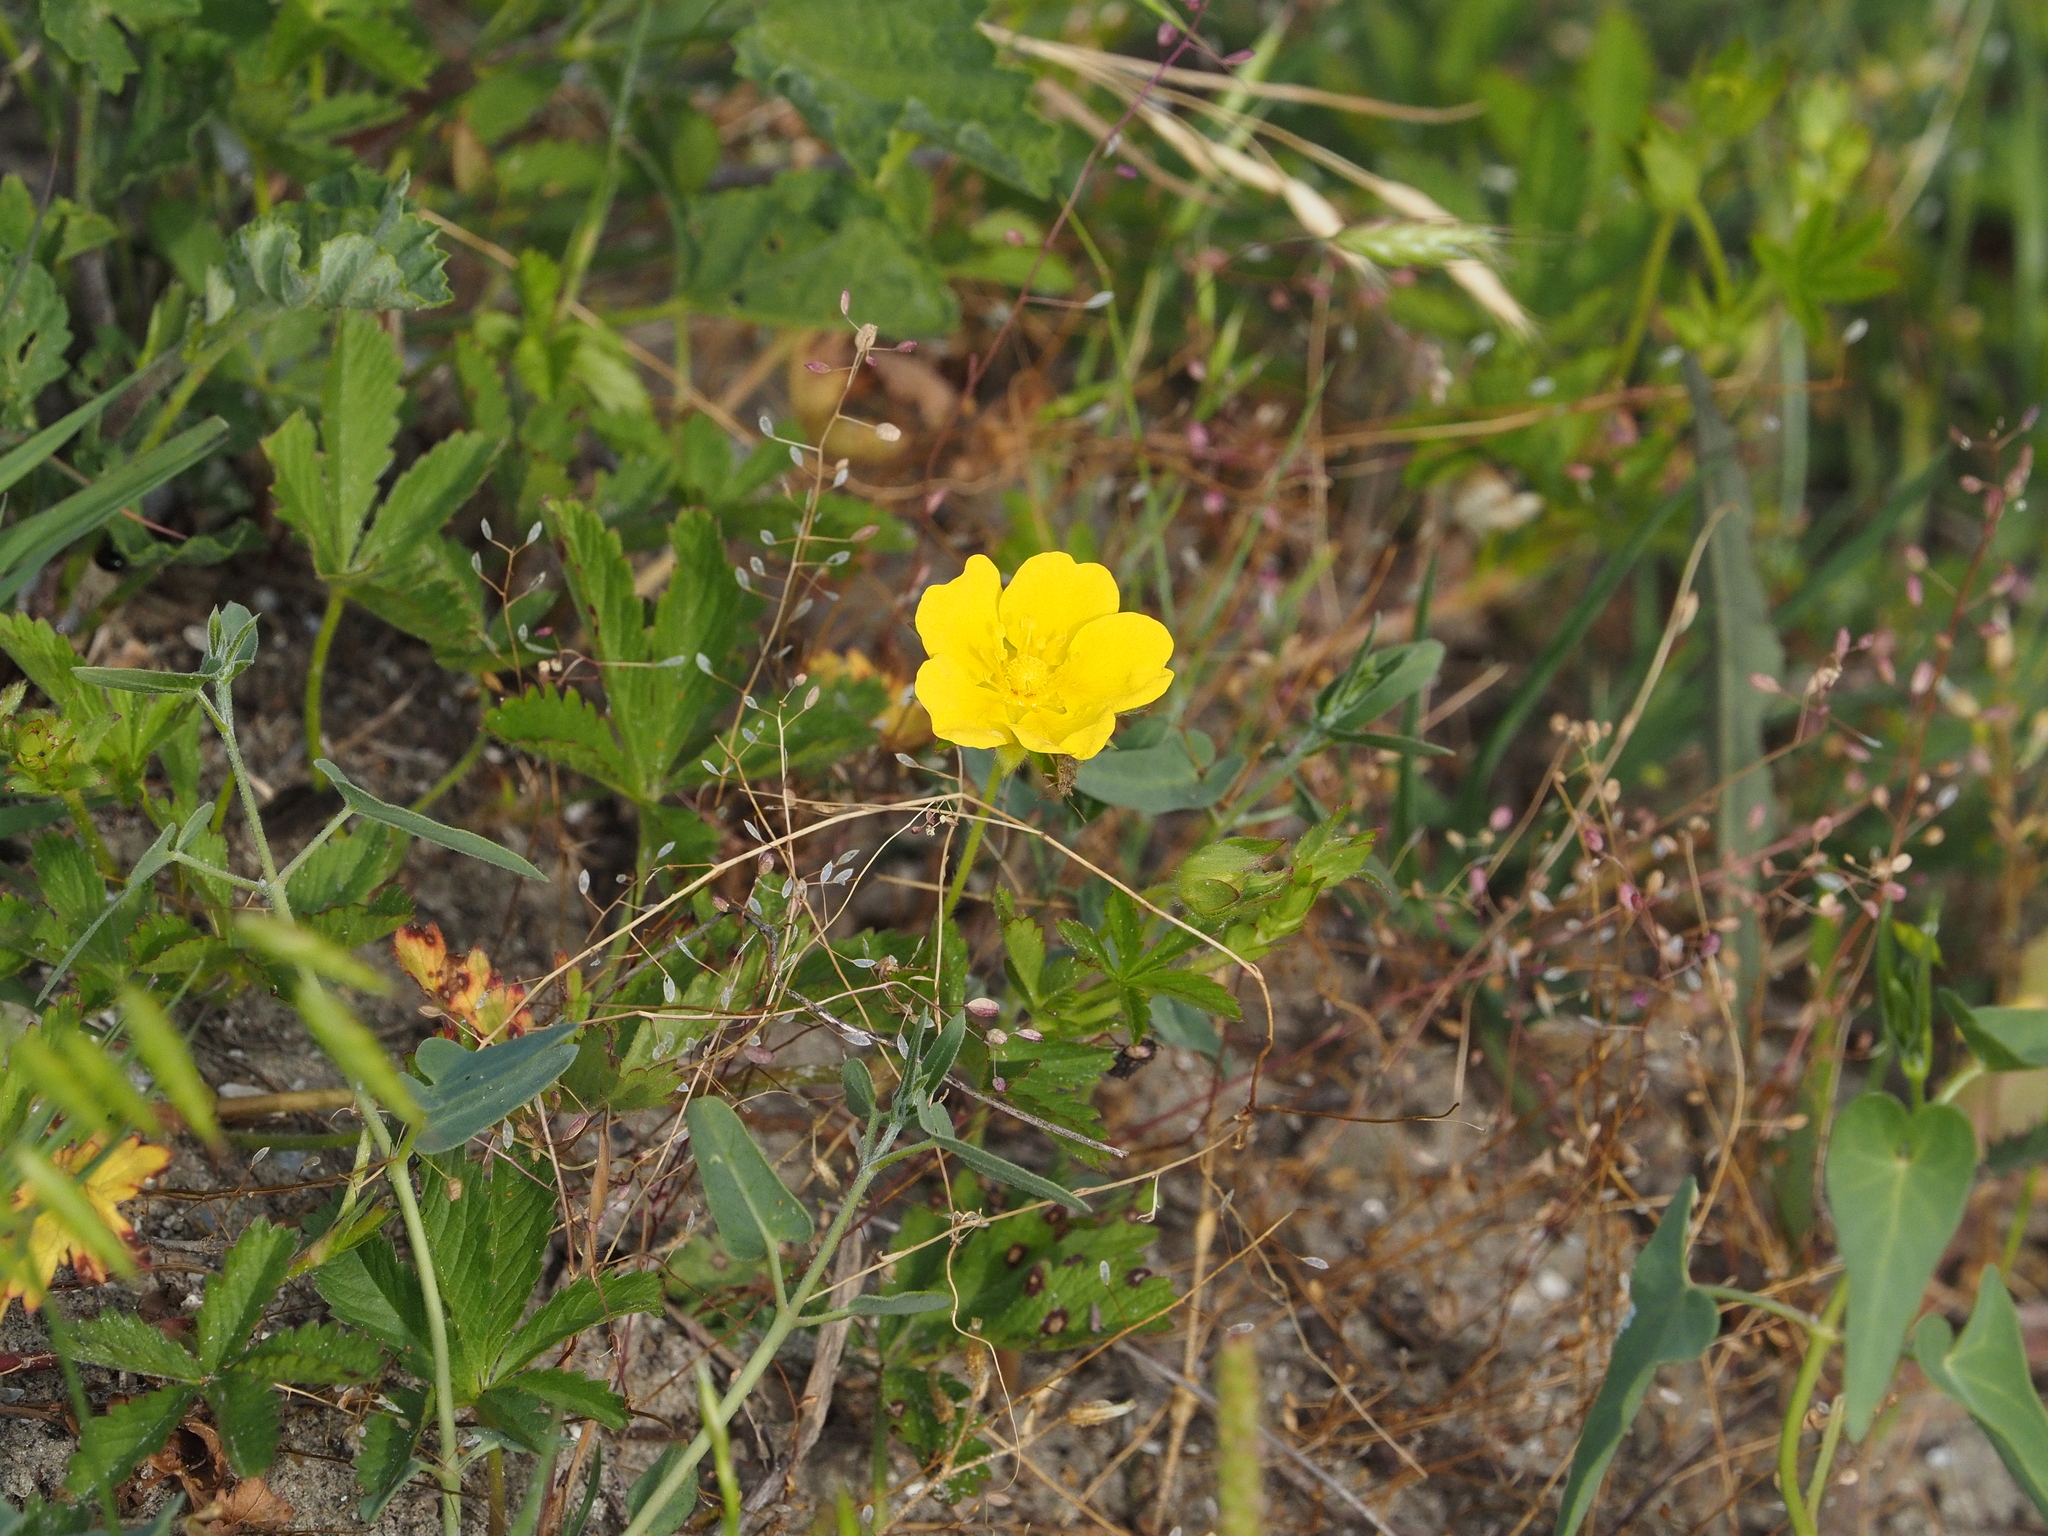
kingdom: Plantae
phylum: Tracheophyta
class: Magnoliopsida
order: Rosales
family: Rosaceae
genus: Potentilla
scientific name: Potentilla reptans
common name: Creeping cinquefoil
